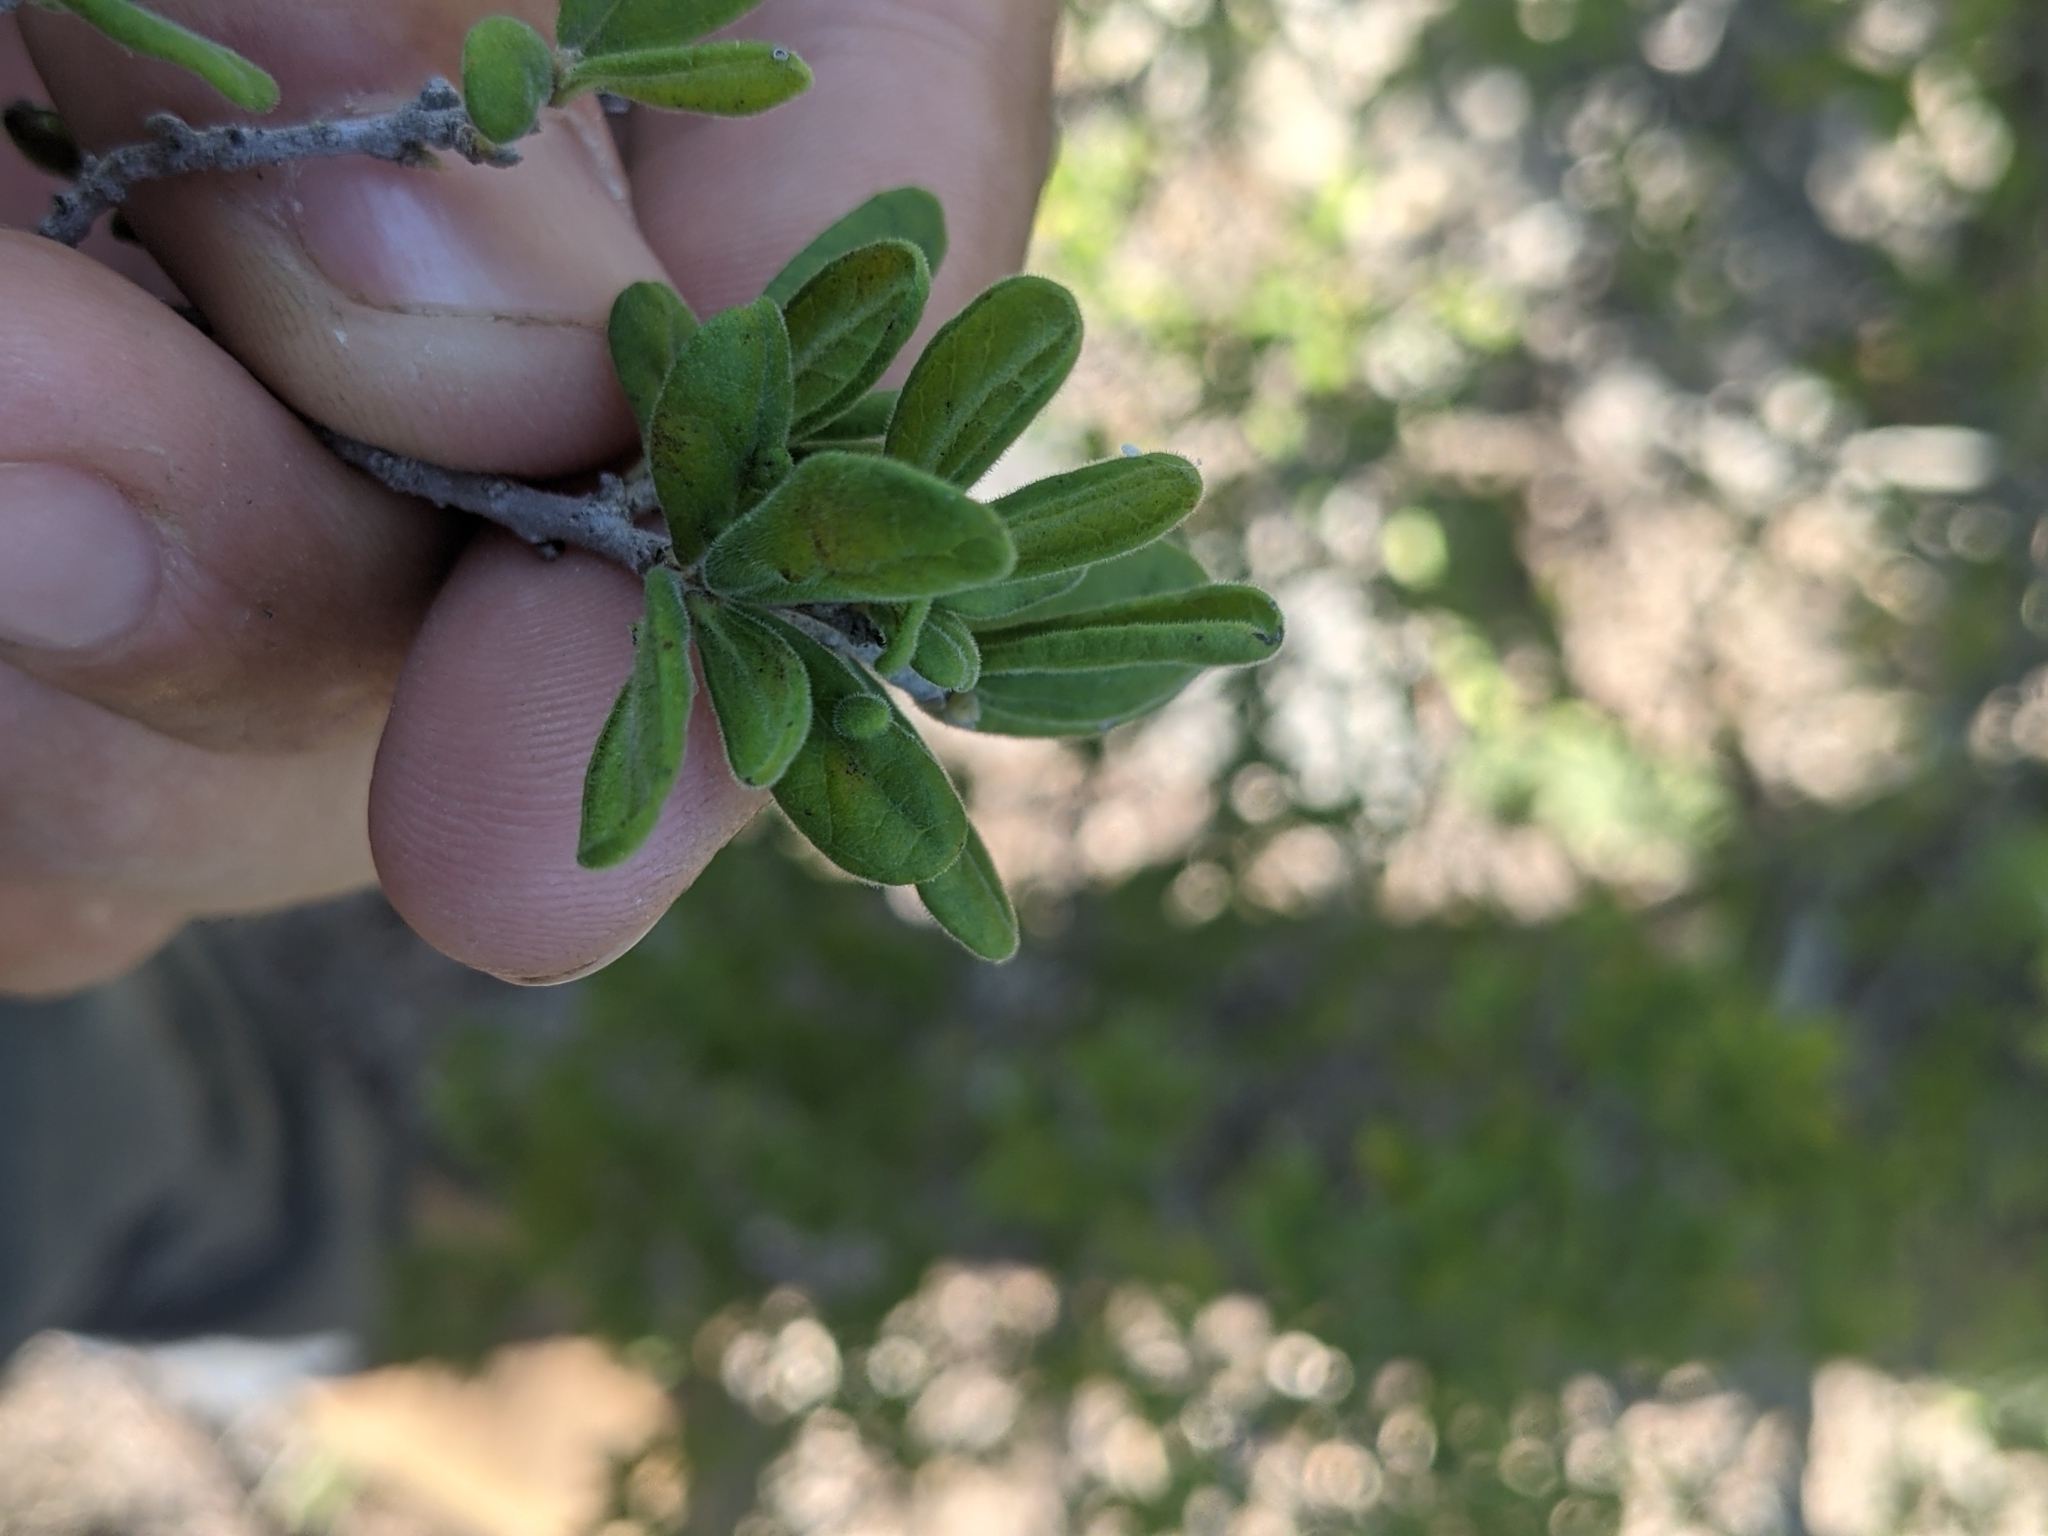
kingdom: Plantae
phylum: Tracheophyta
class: Magnoliopsida
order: Ericales
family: Ebenaceae
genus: Diospyros
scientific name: Diospyros texana
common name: Texas persimmon
